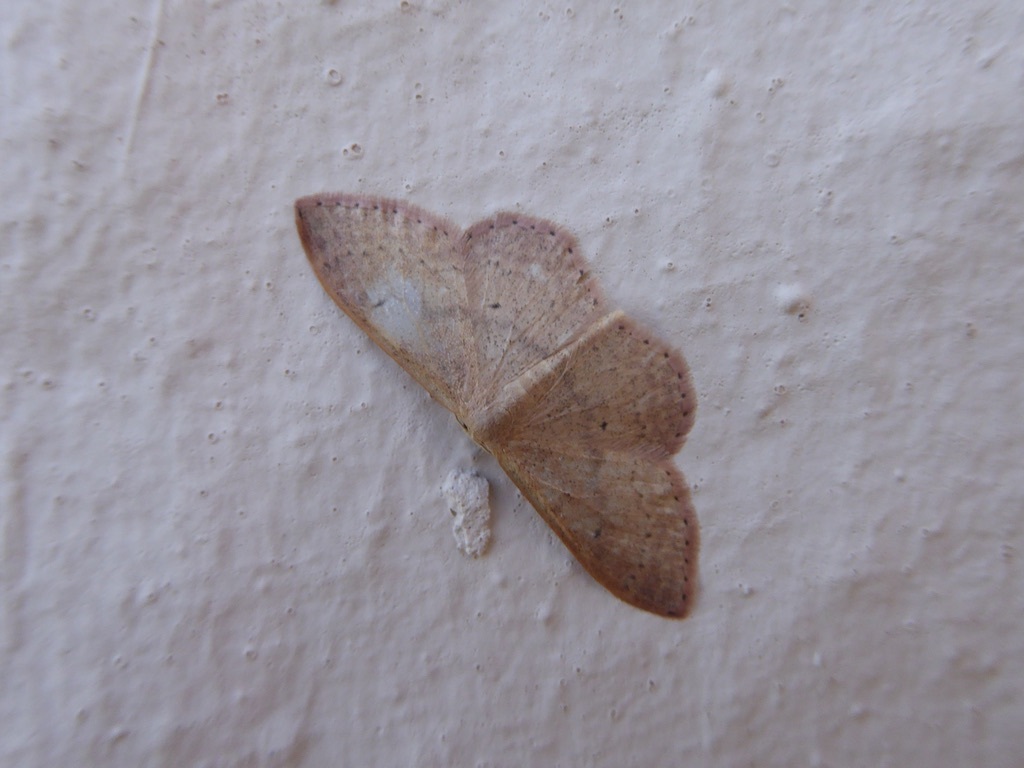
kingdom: Animalia
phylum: Arthropoda
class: Insecta
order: Lepidoptera
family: Geometridae
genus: Idaea
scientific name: Idaea eugeniata
